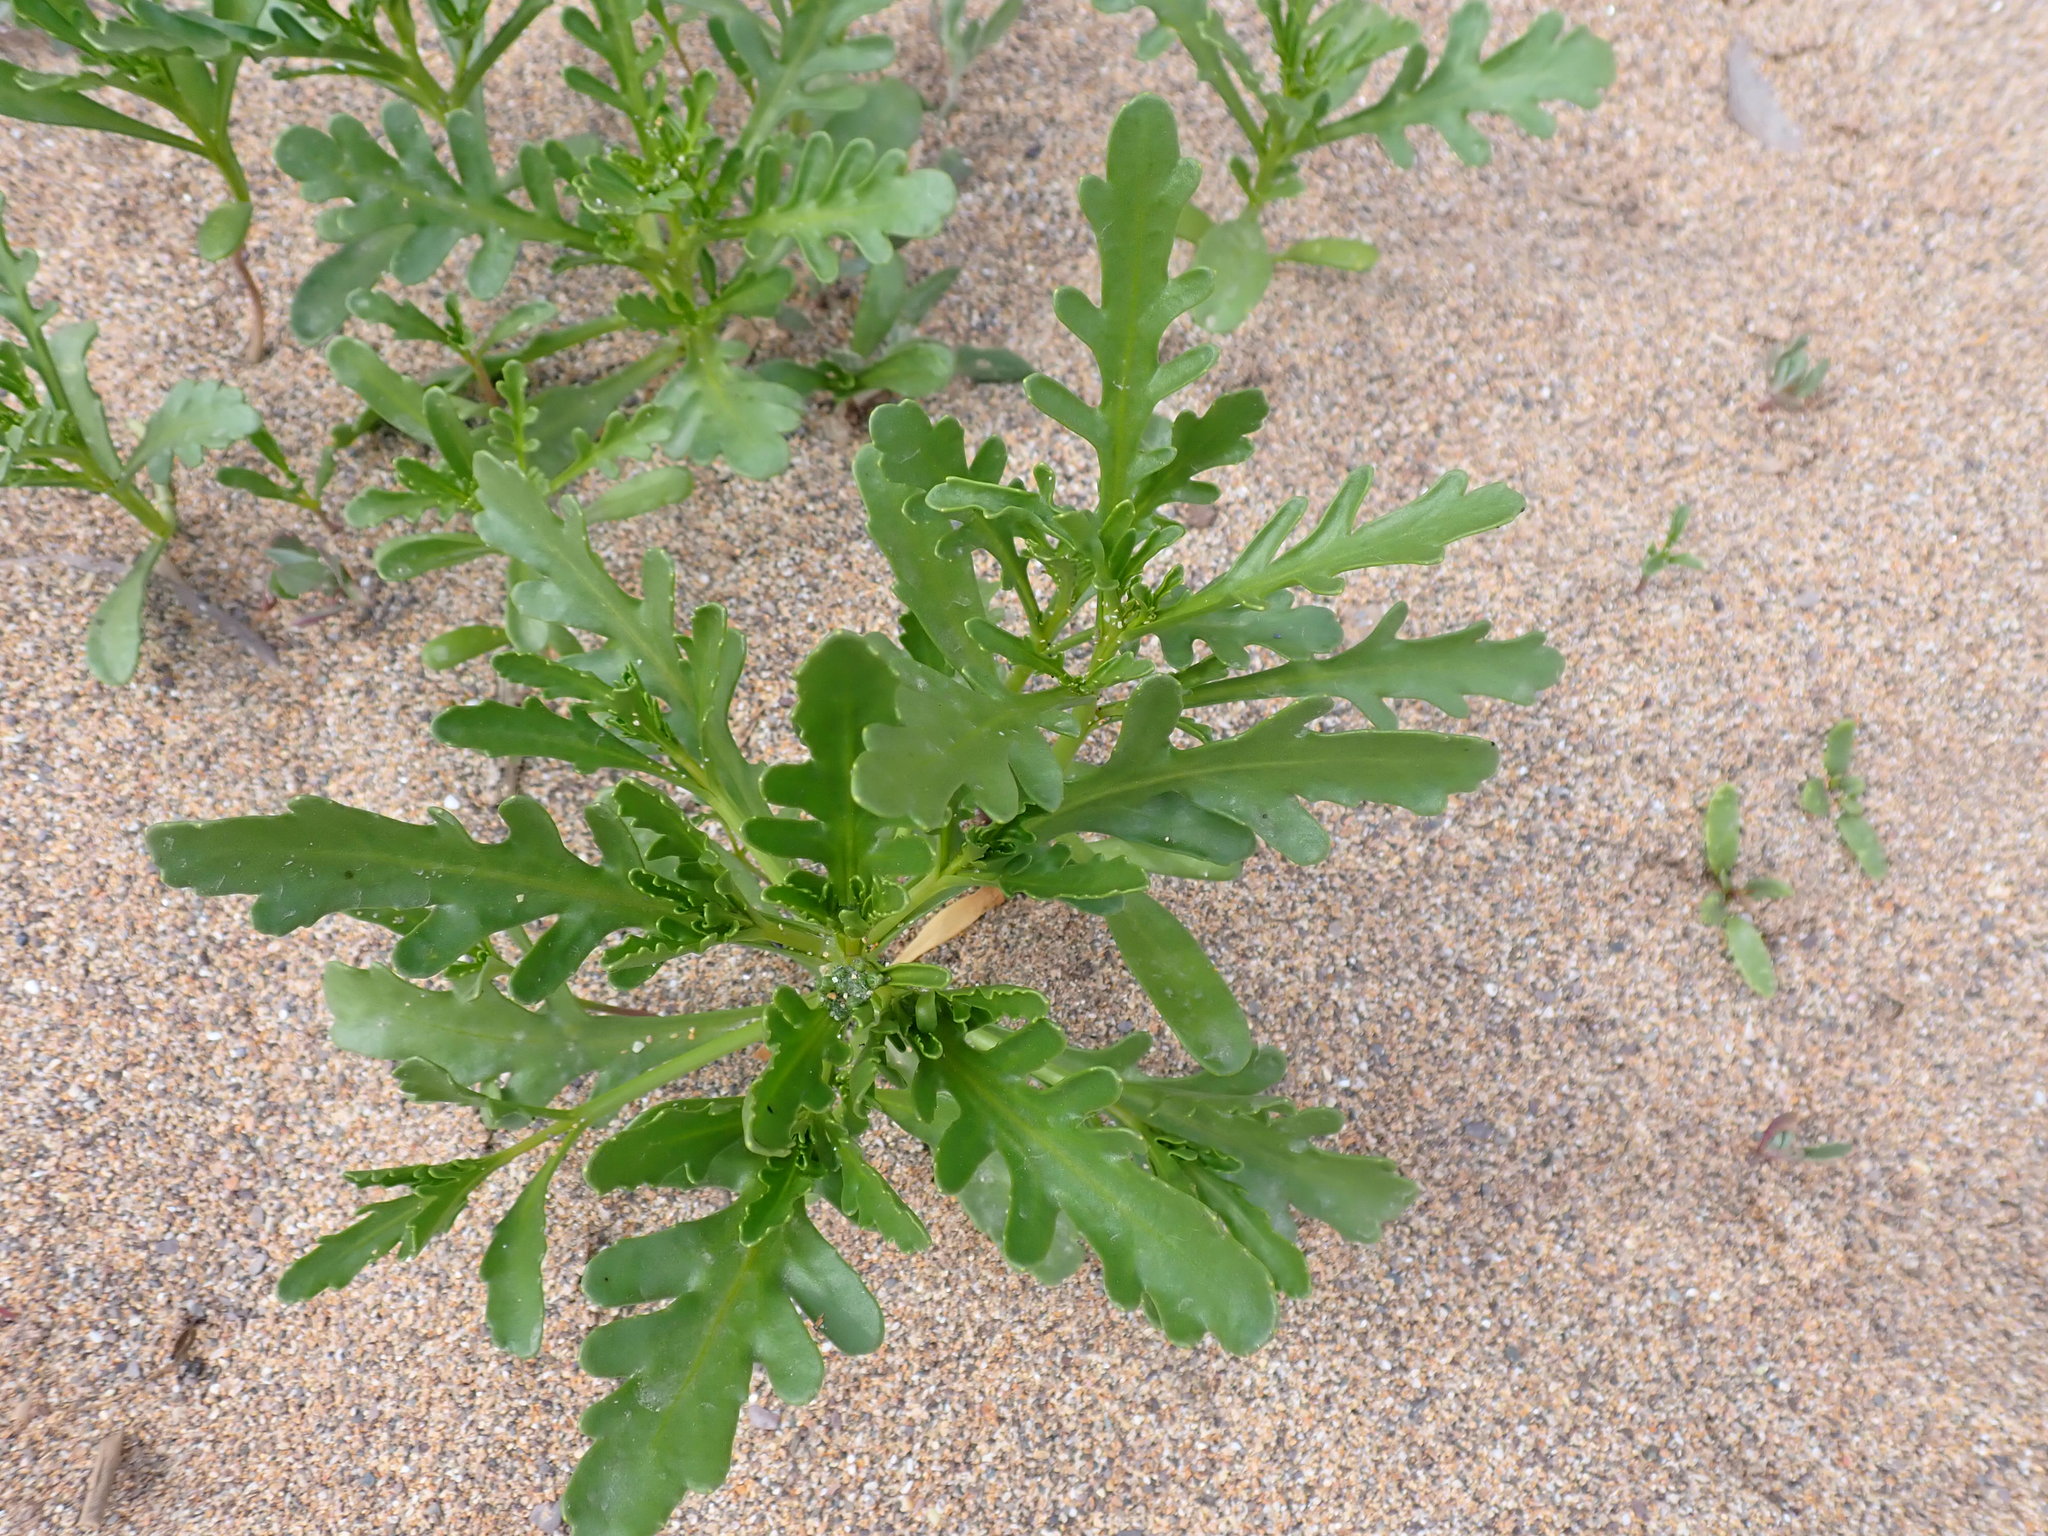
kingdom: Plantae
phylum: Tracheophyta
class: Magnoliopsida
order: Brassicales
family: Brassicaceae
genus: Cakile
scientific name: Cakile maritima
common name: Sea rocket
